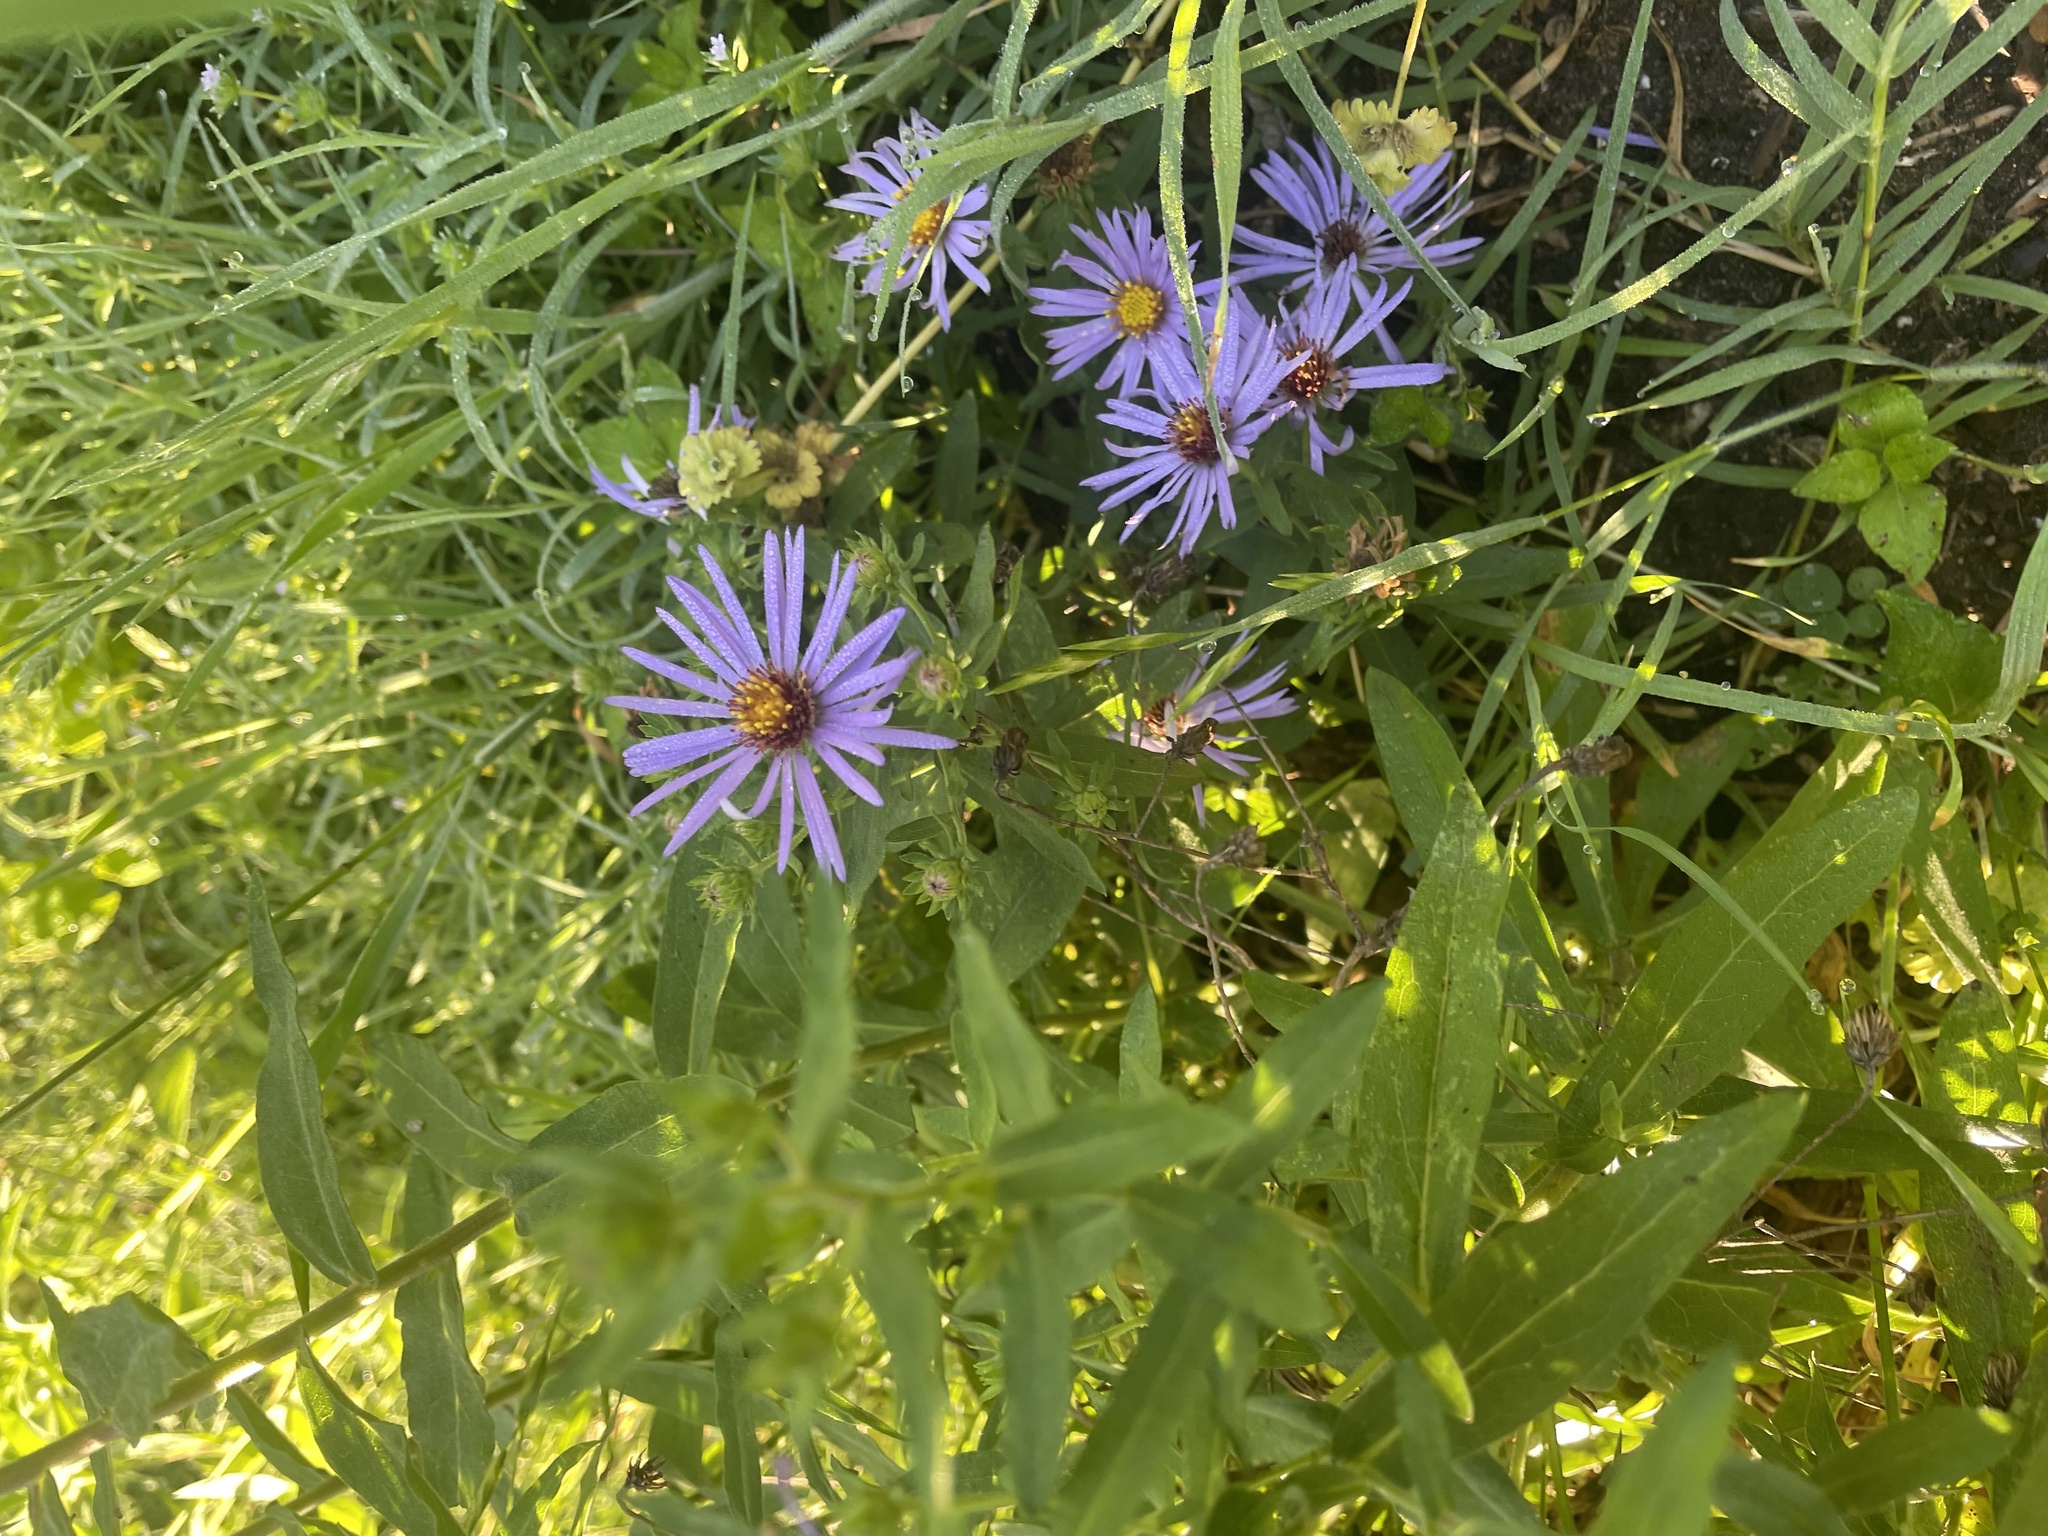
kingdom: Plantae
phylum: Tracheophyta
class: Magnoliopsida
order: Asterales
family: Asteraceae
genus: Symphyotrichum
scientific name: Symphyotrichum oblongifolium
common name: Aromatic aster
